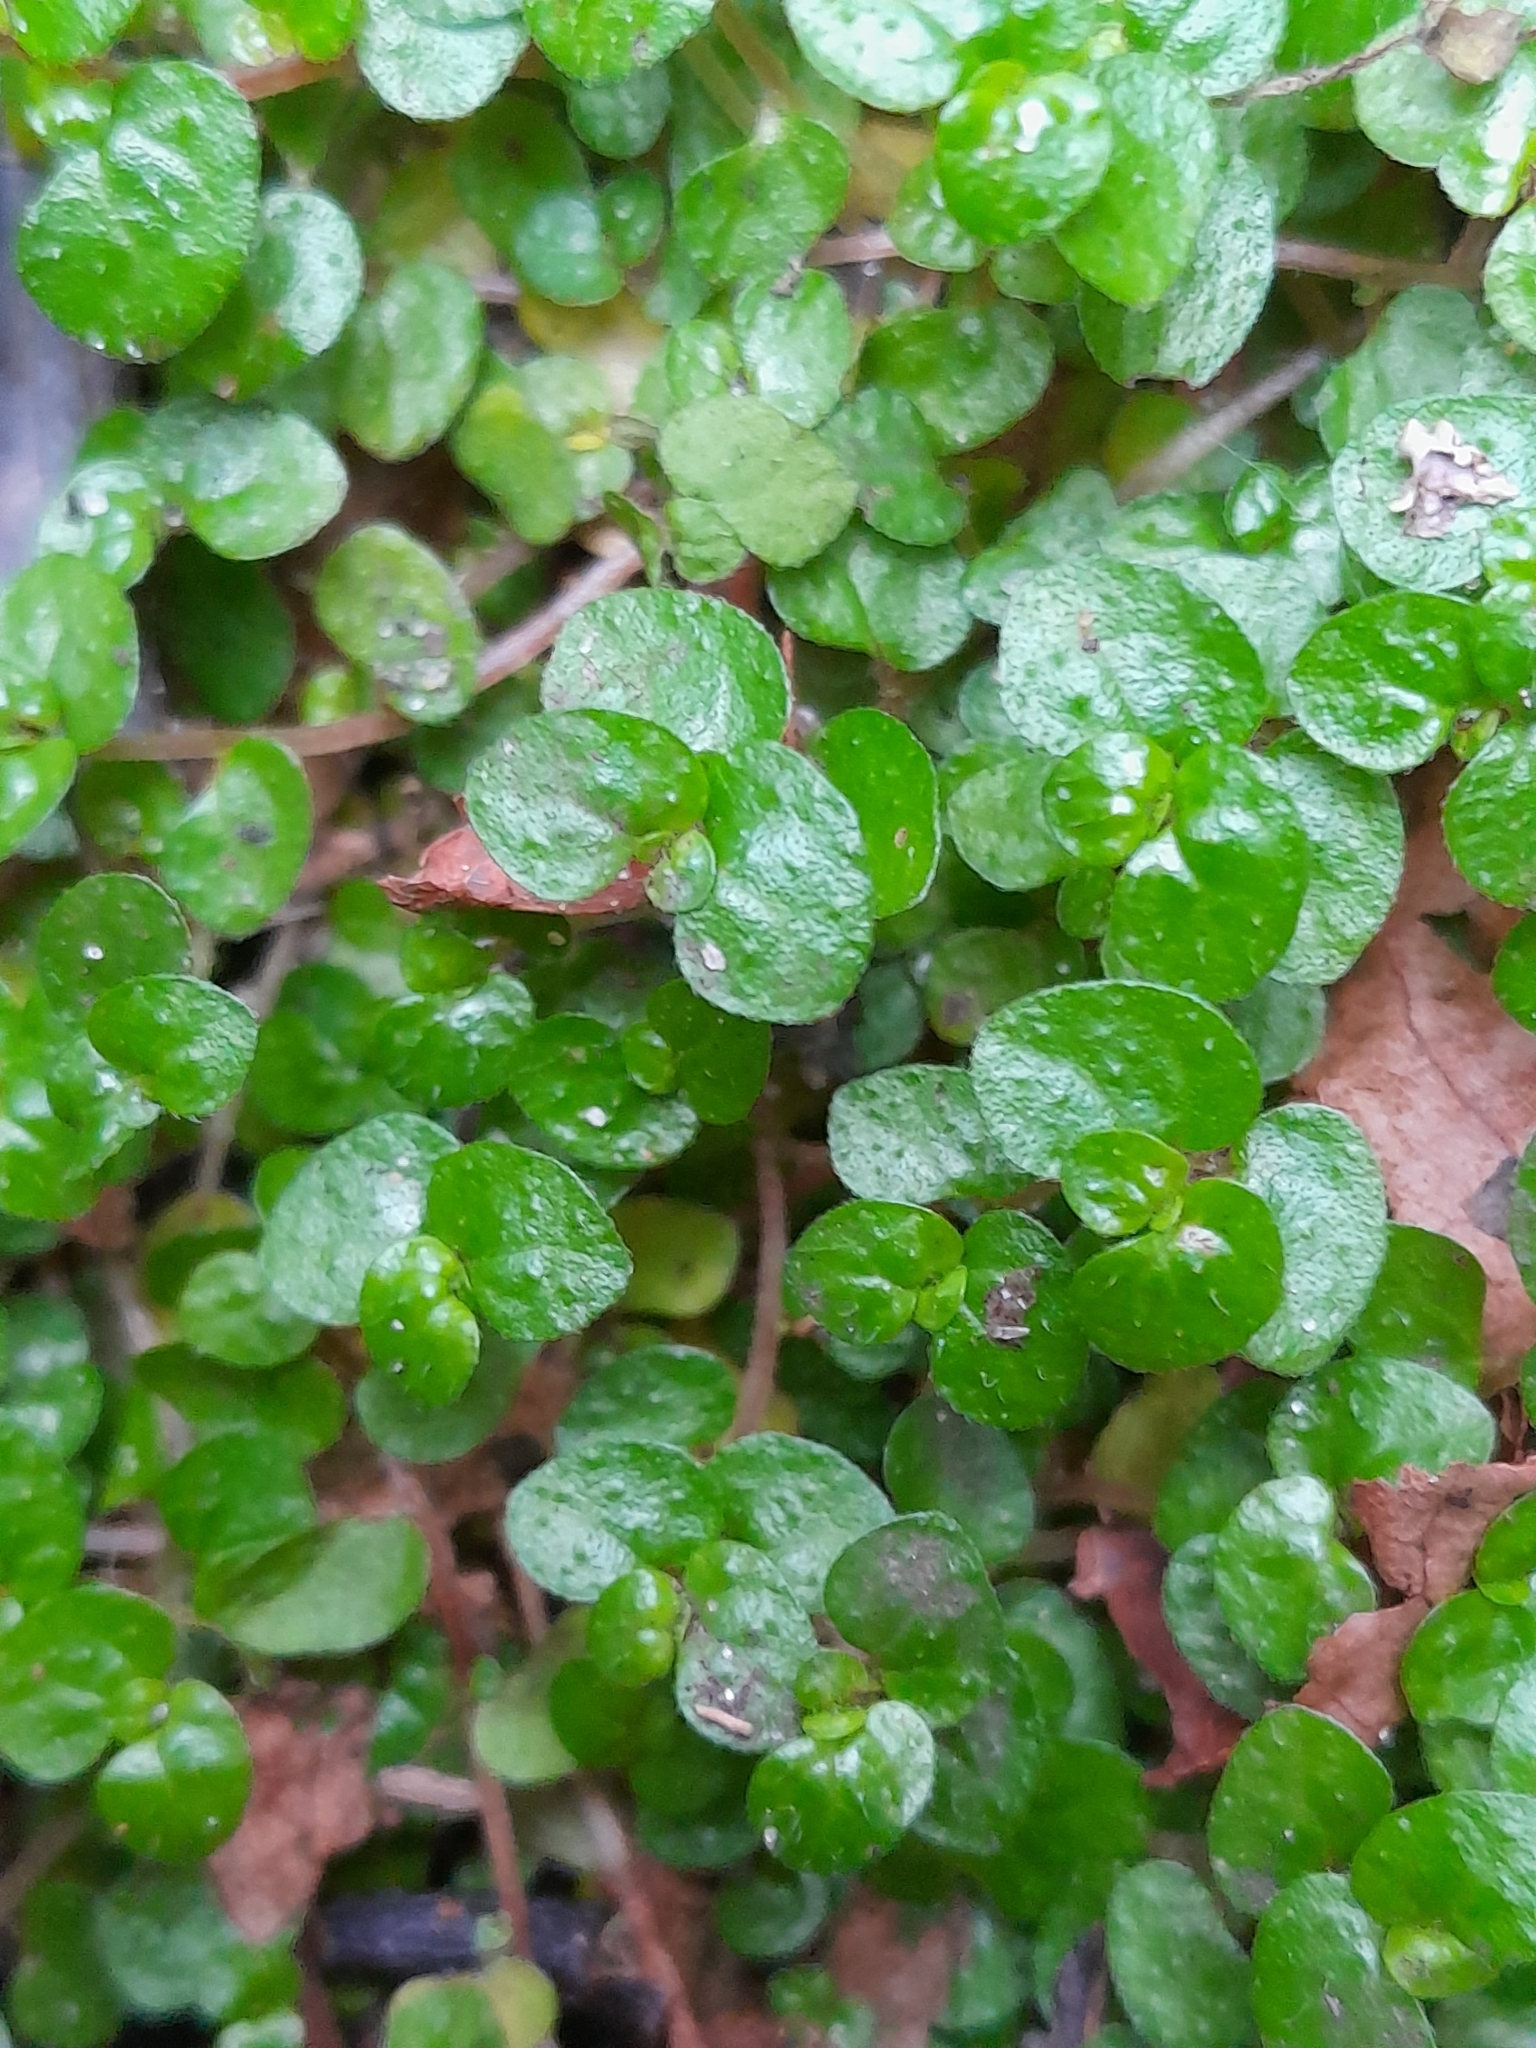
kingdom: Plantae
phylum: Tracheophyta
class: Magnoliopsida
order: Rosales
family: Urticaceae
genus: Soleirolia
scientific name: Soleirolia soleirolii
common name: Mind-your-own-business
